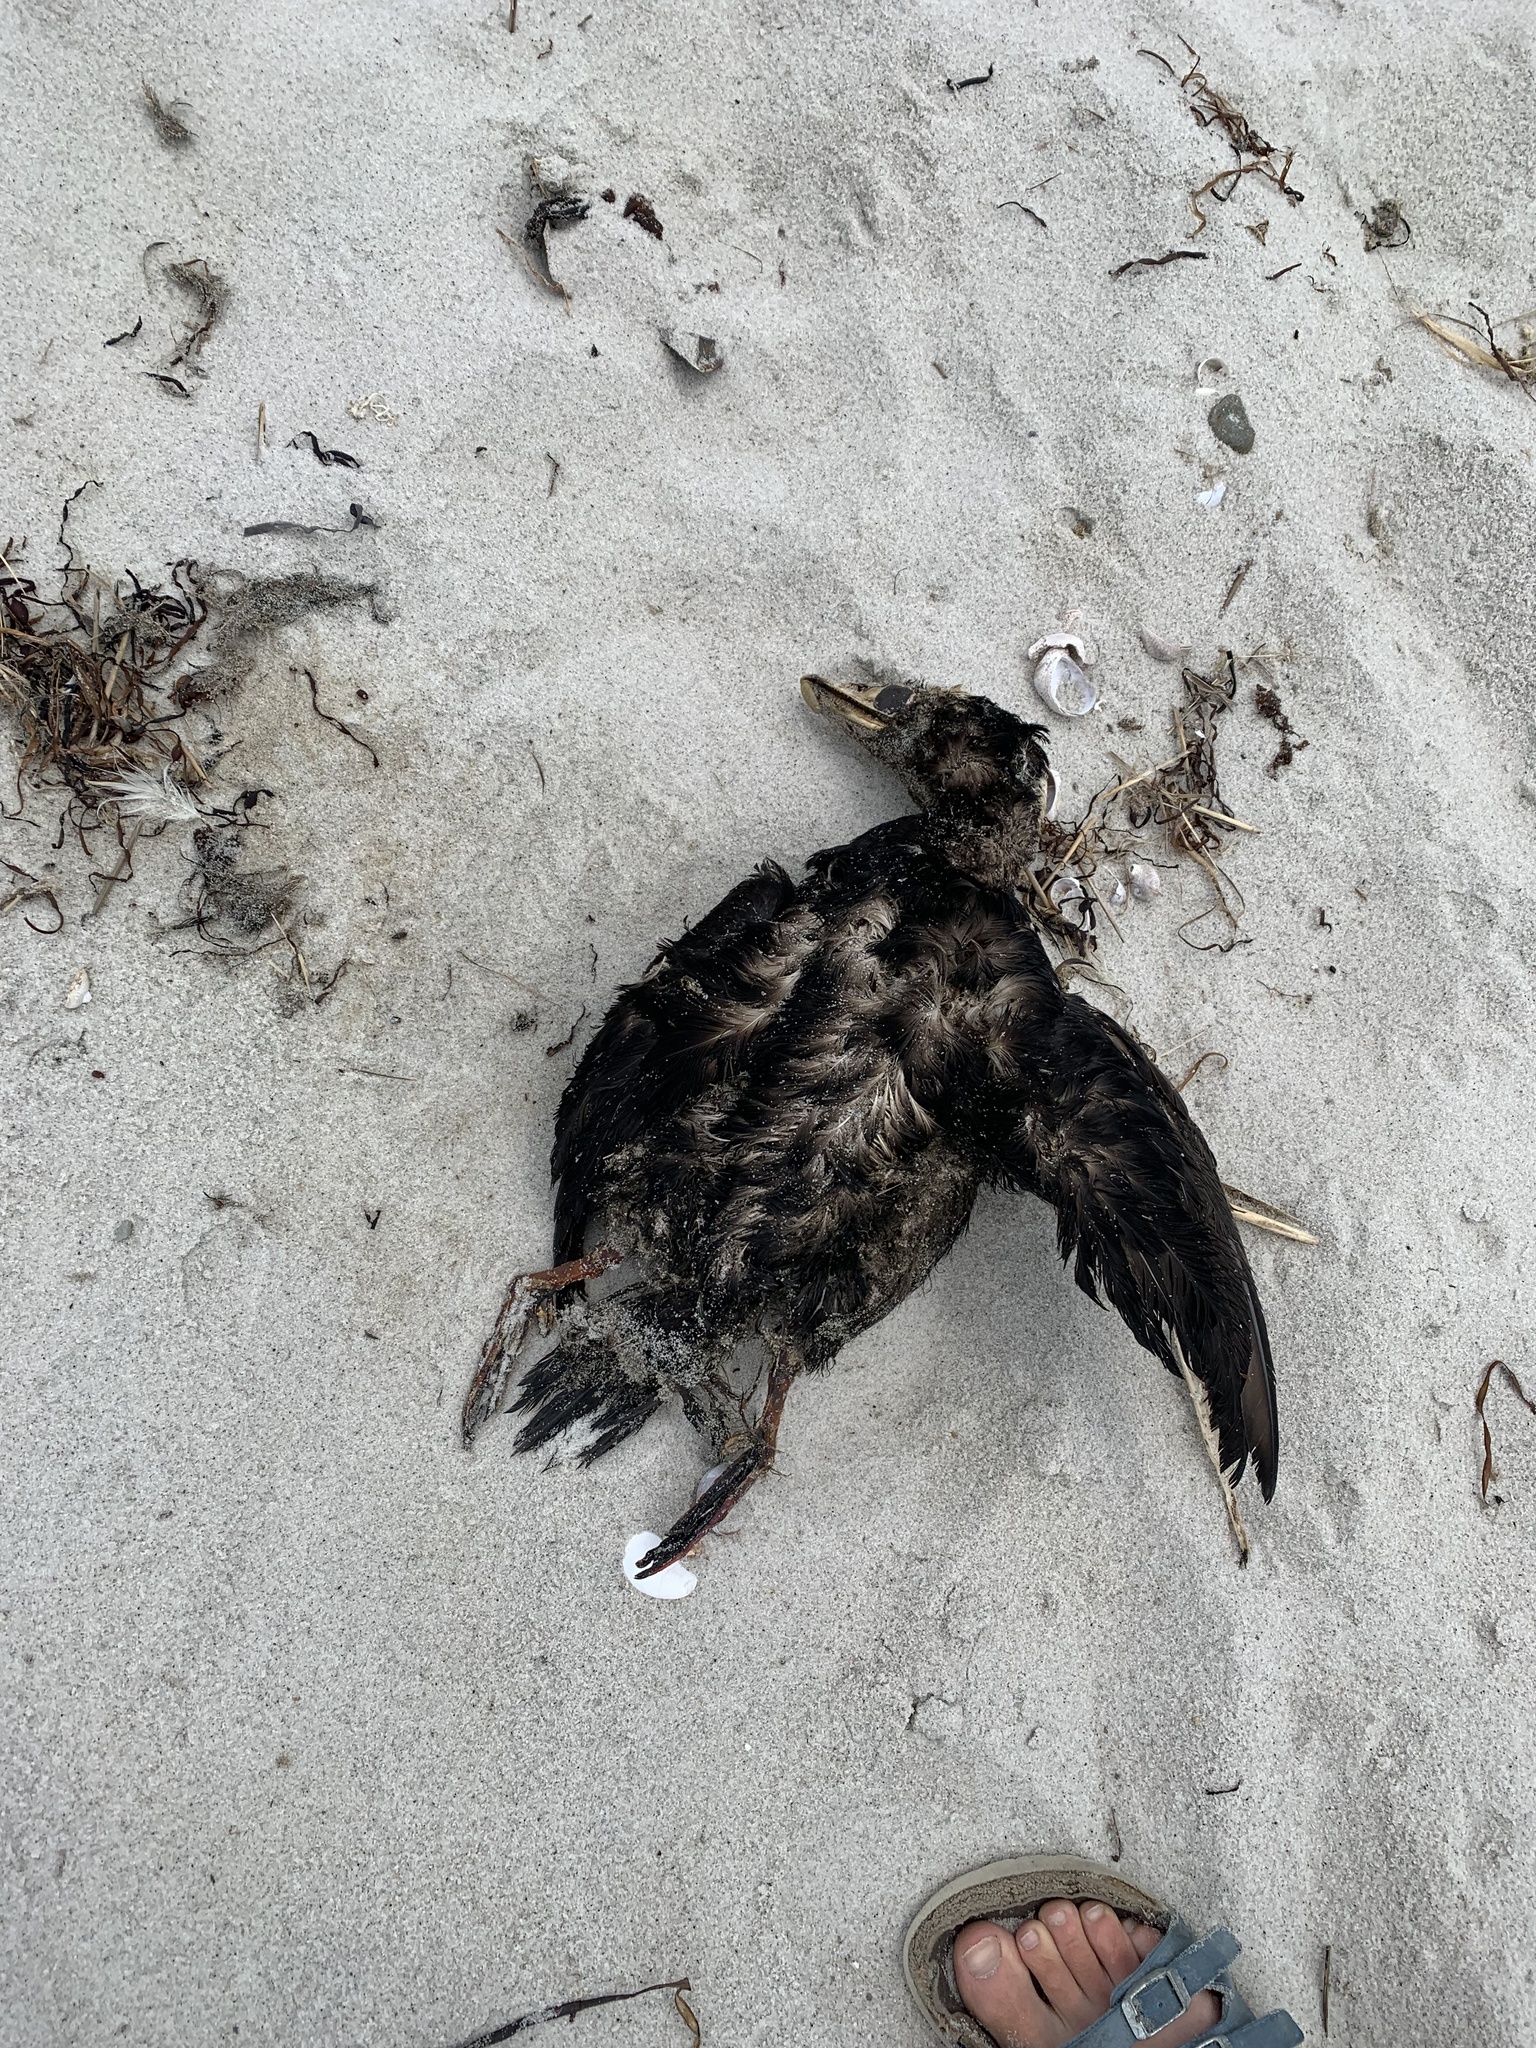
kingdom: Animalia
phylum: Chordata
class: Aves
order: Anseriformes
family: Anatidae
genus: Melanitta
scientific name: Melanitta perspicillata
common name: Surf scoter
